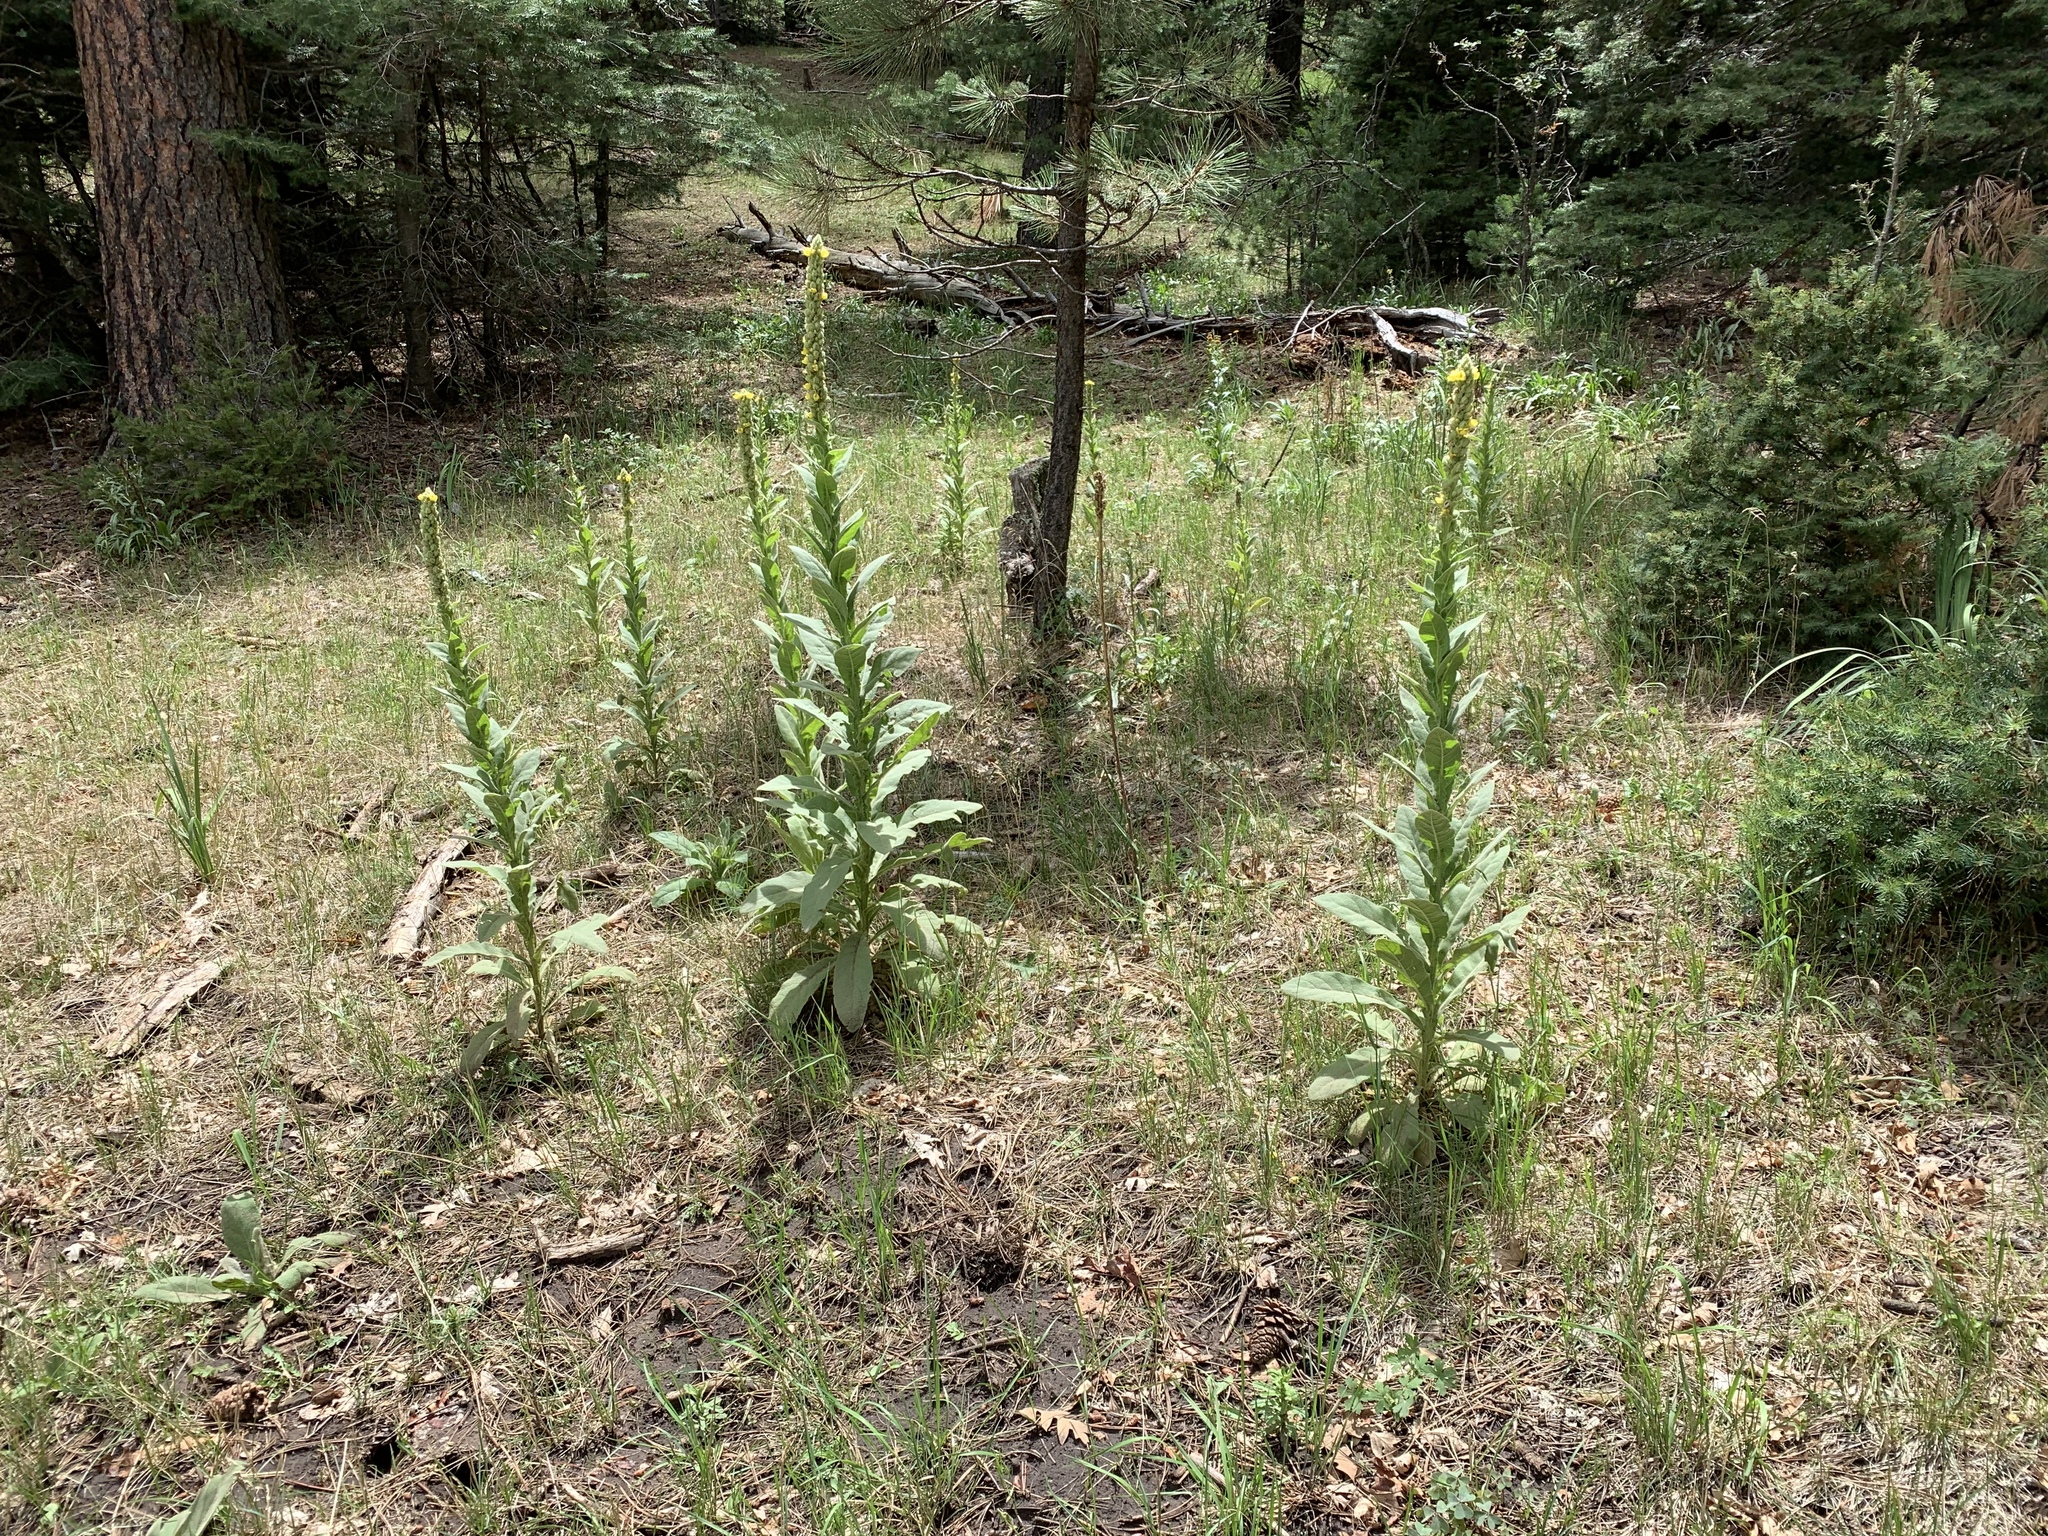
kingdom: Plantae
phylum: Tracheophyta
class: Magnoliopsida
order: Lamiales
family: Scrophulariaceae
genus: Verbascum
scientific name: Verbascum thapsus
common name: Common mullein
